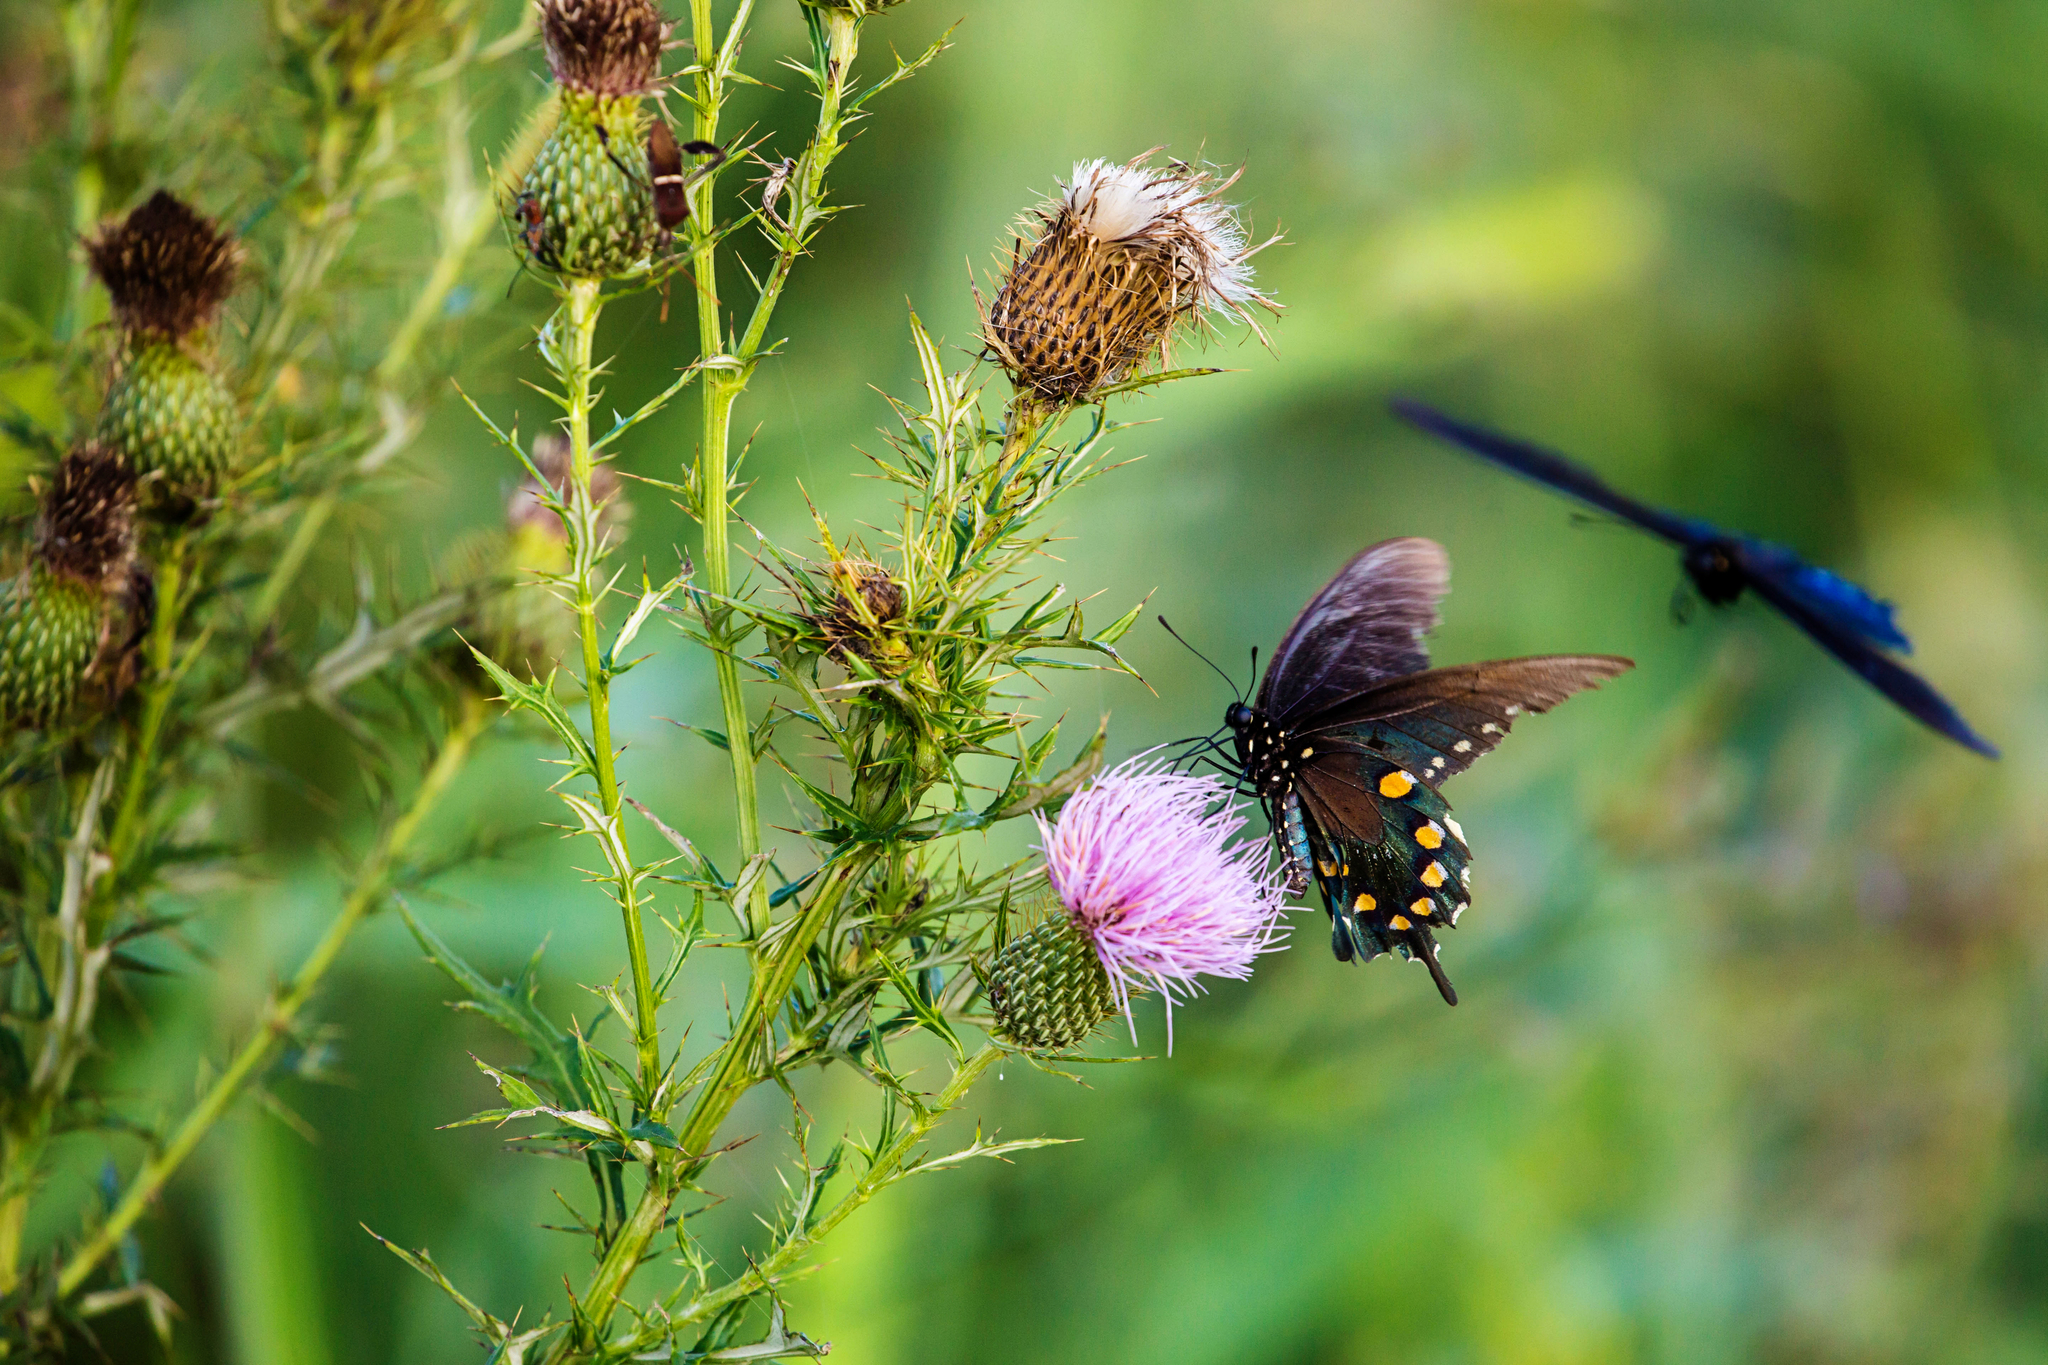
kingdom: Animalia
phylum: Arthropoda
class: Insecta
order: Lepidoptera
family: Papilionidae
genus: Battus
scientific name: Battus philenor
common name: Pipevine swallowtail
